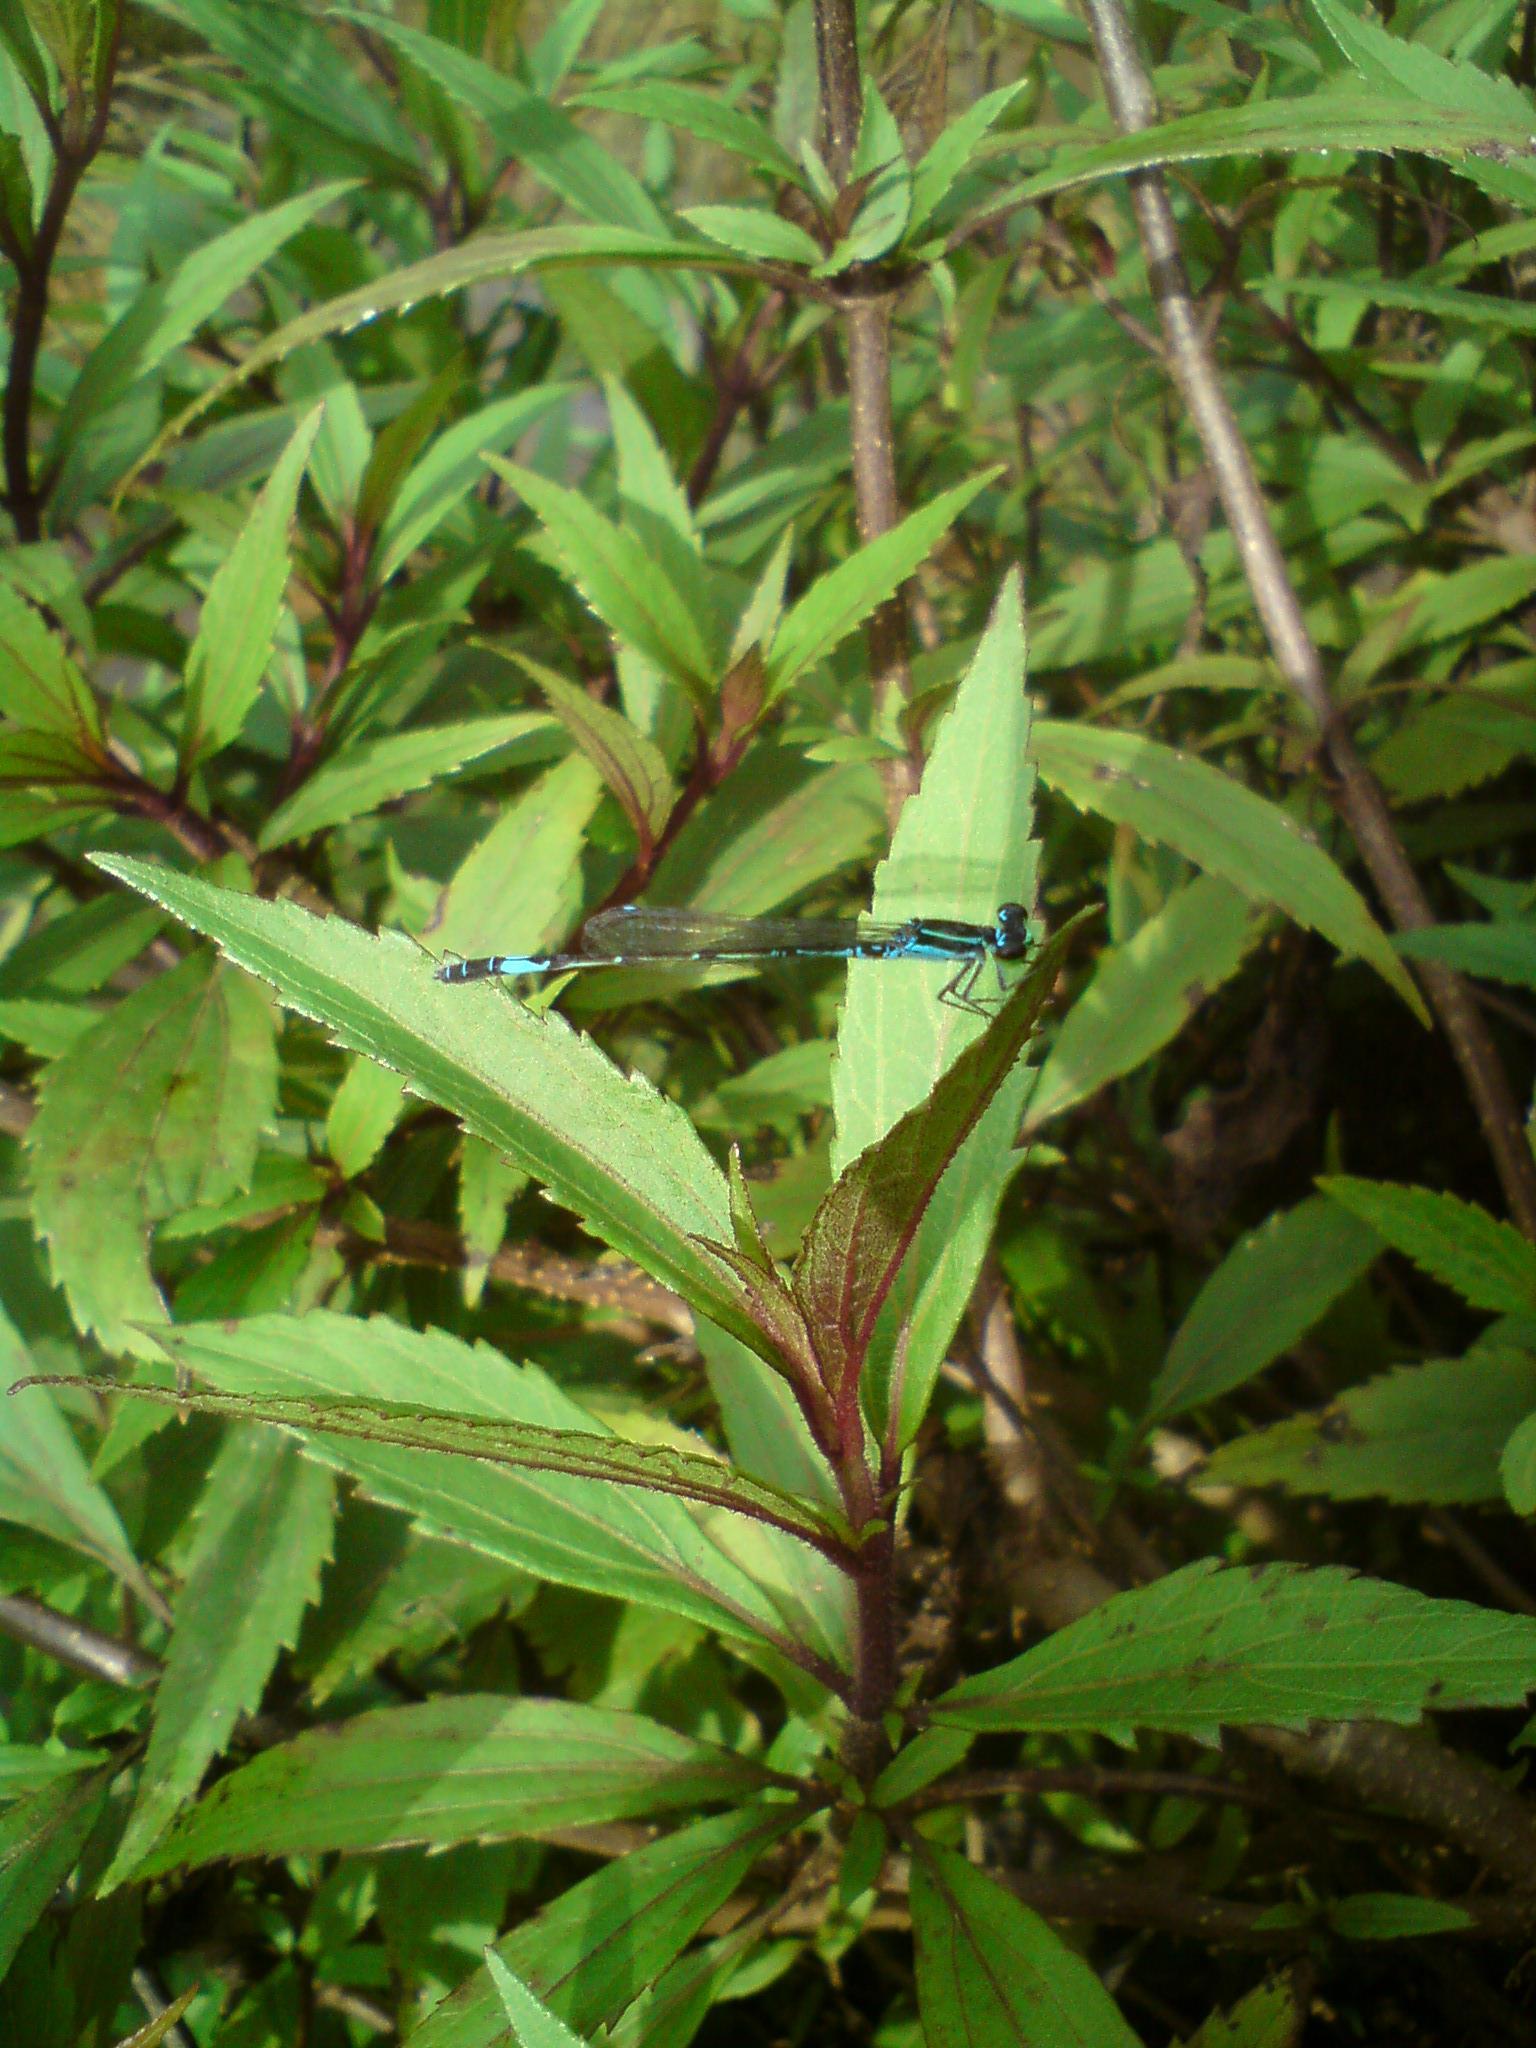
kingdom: Animalia
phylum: Arthropoda
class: Insecta
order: Odonata
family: Coenagrionidae
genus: Agriocnemis
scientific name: Agriocnemis clauseni
